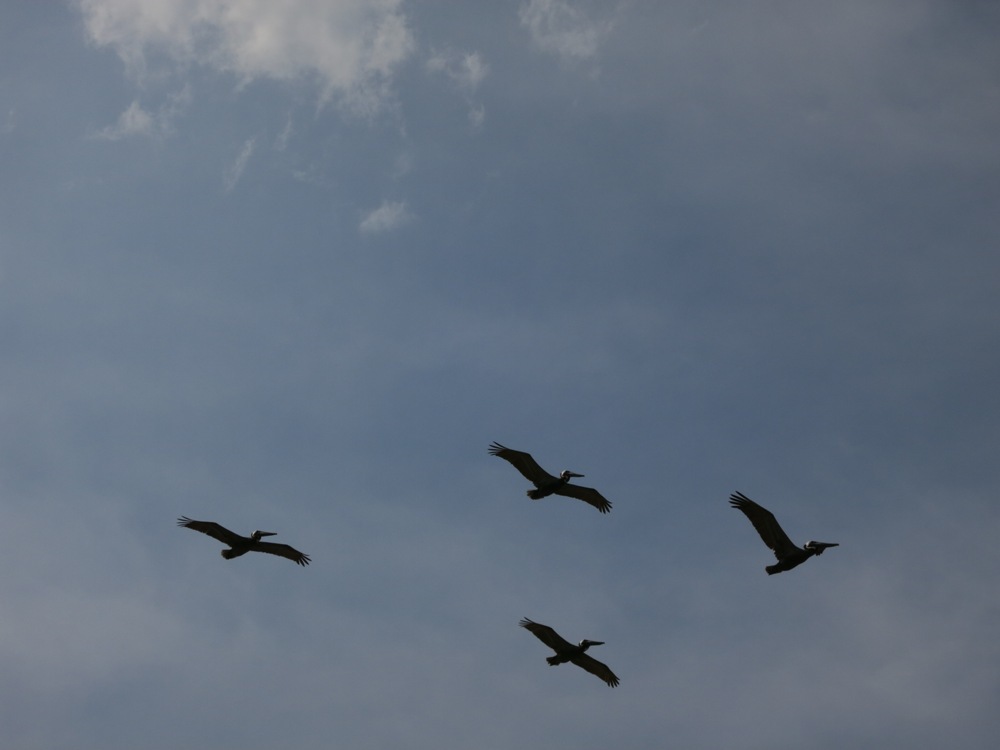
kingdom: Animalia
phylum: Chordata
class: Aves
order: Pelecaniformes
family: Pelecanidae
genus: Pelecanus
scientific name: Pelecanus occidentalis
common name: Brown pelican
